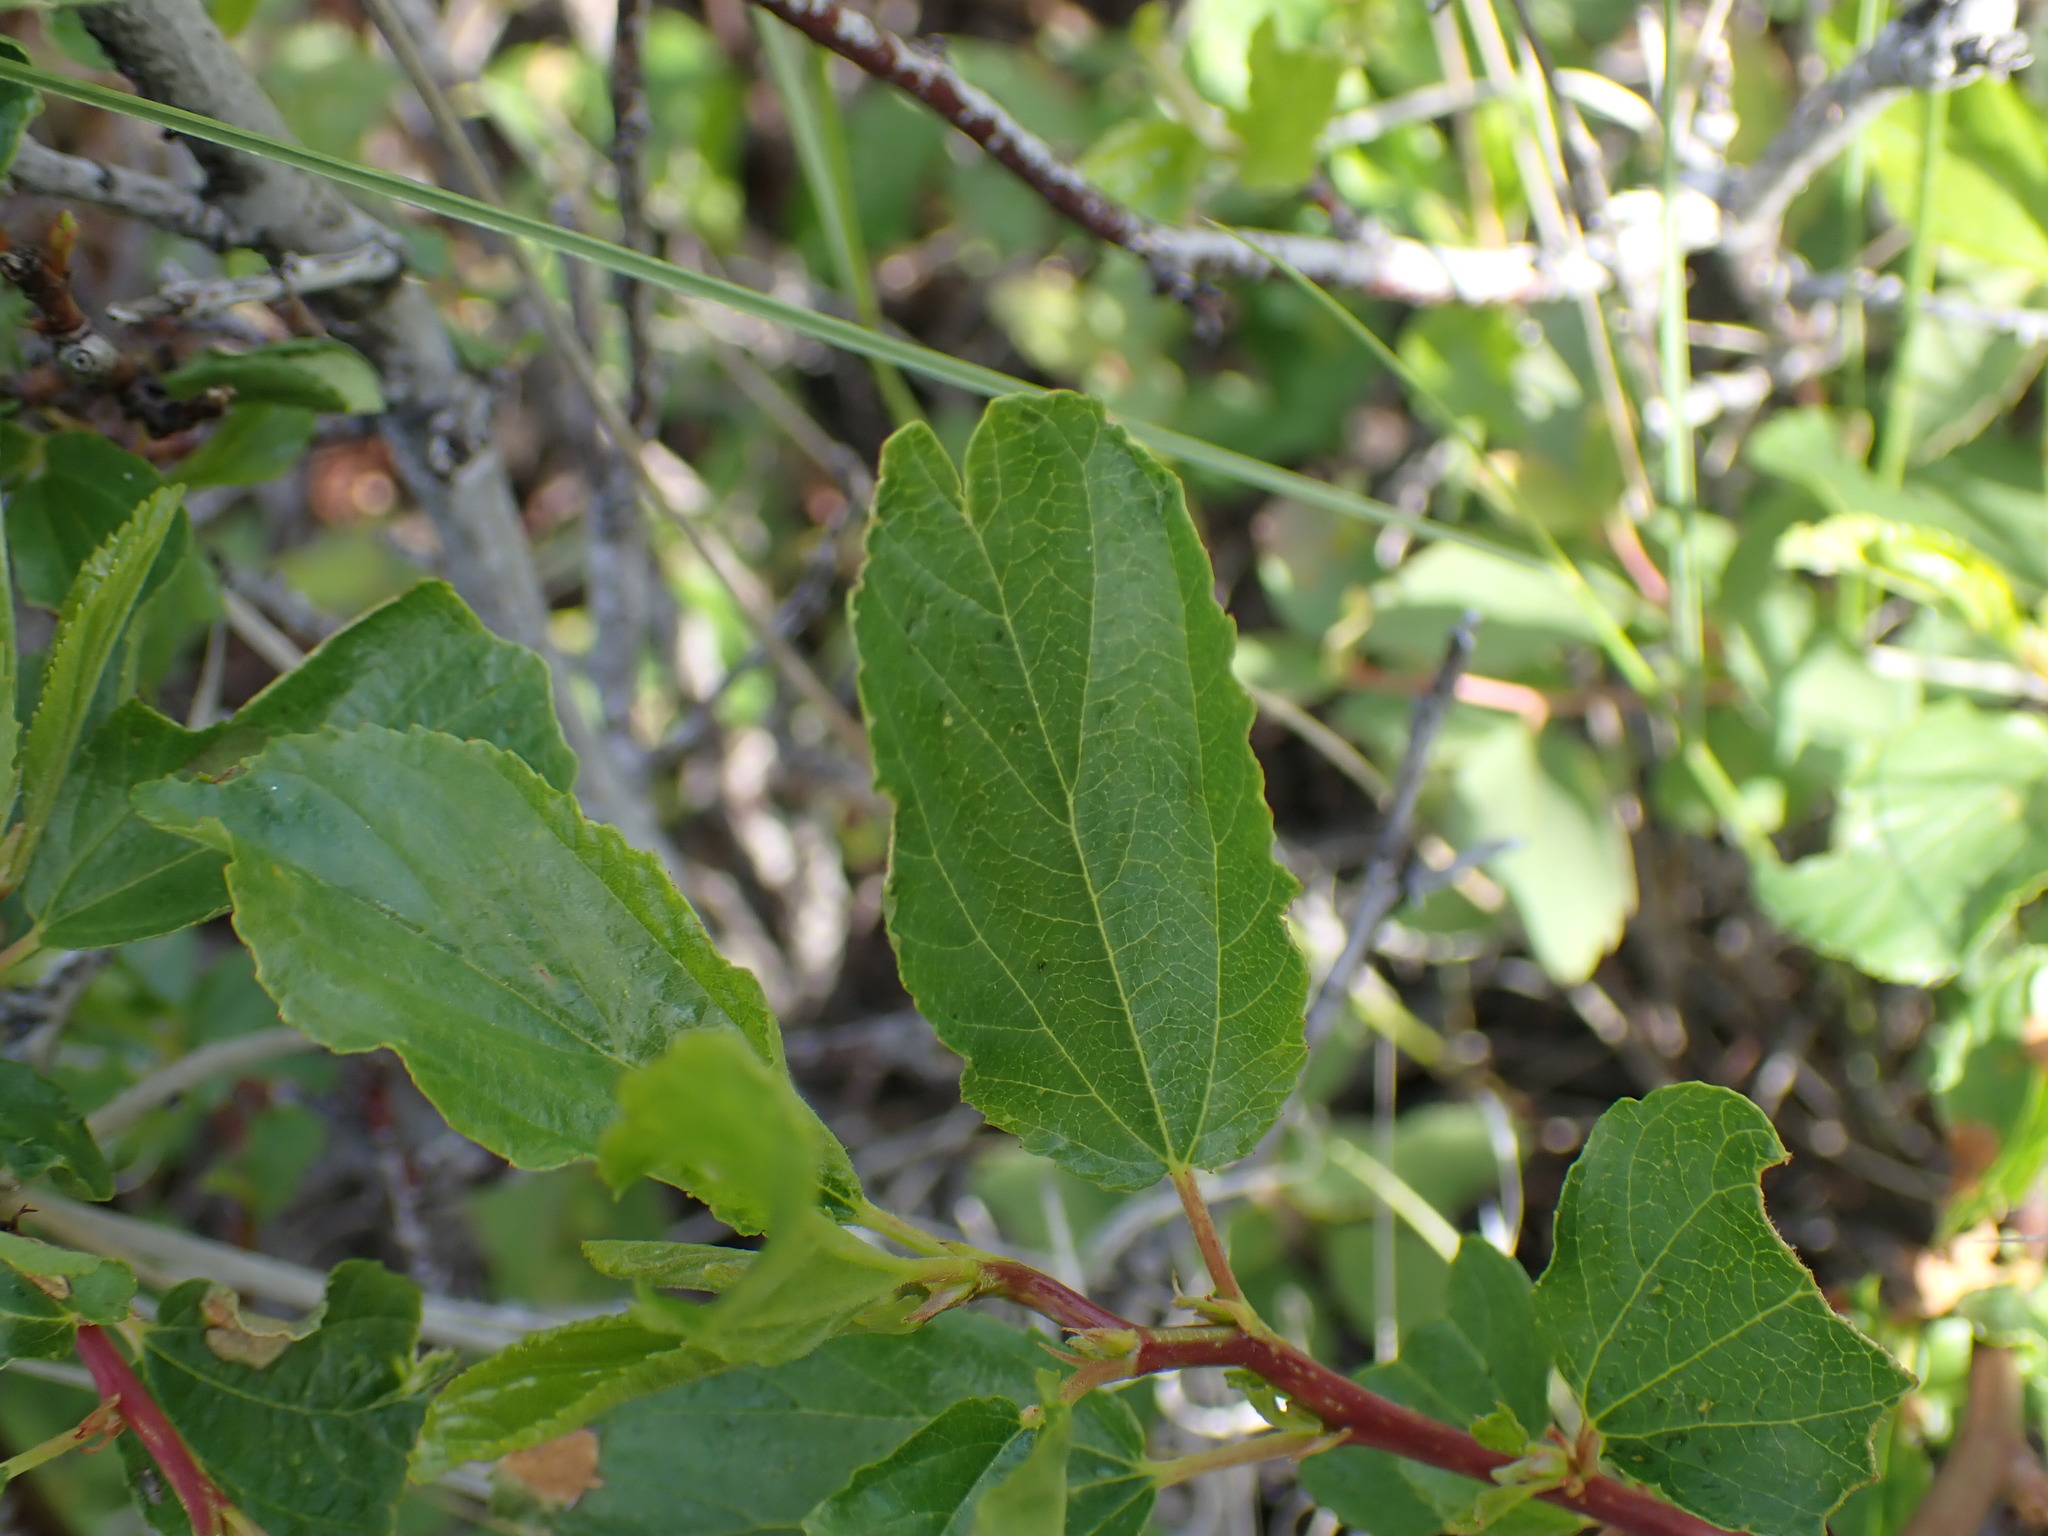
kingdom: Plantae
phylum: Tracheophyta
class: Magnoliopsida
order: Rosales
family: Rhamnaceae
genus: Ceanothus
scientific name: Ceanothus sanguineus
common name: Teatree
